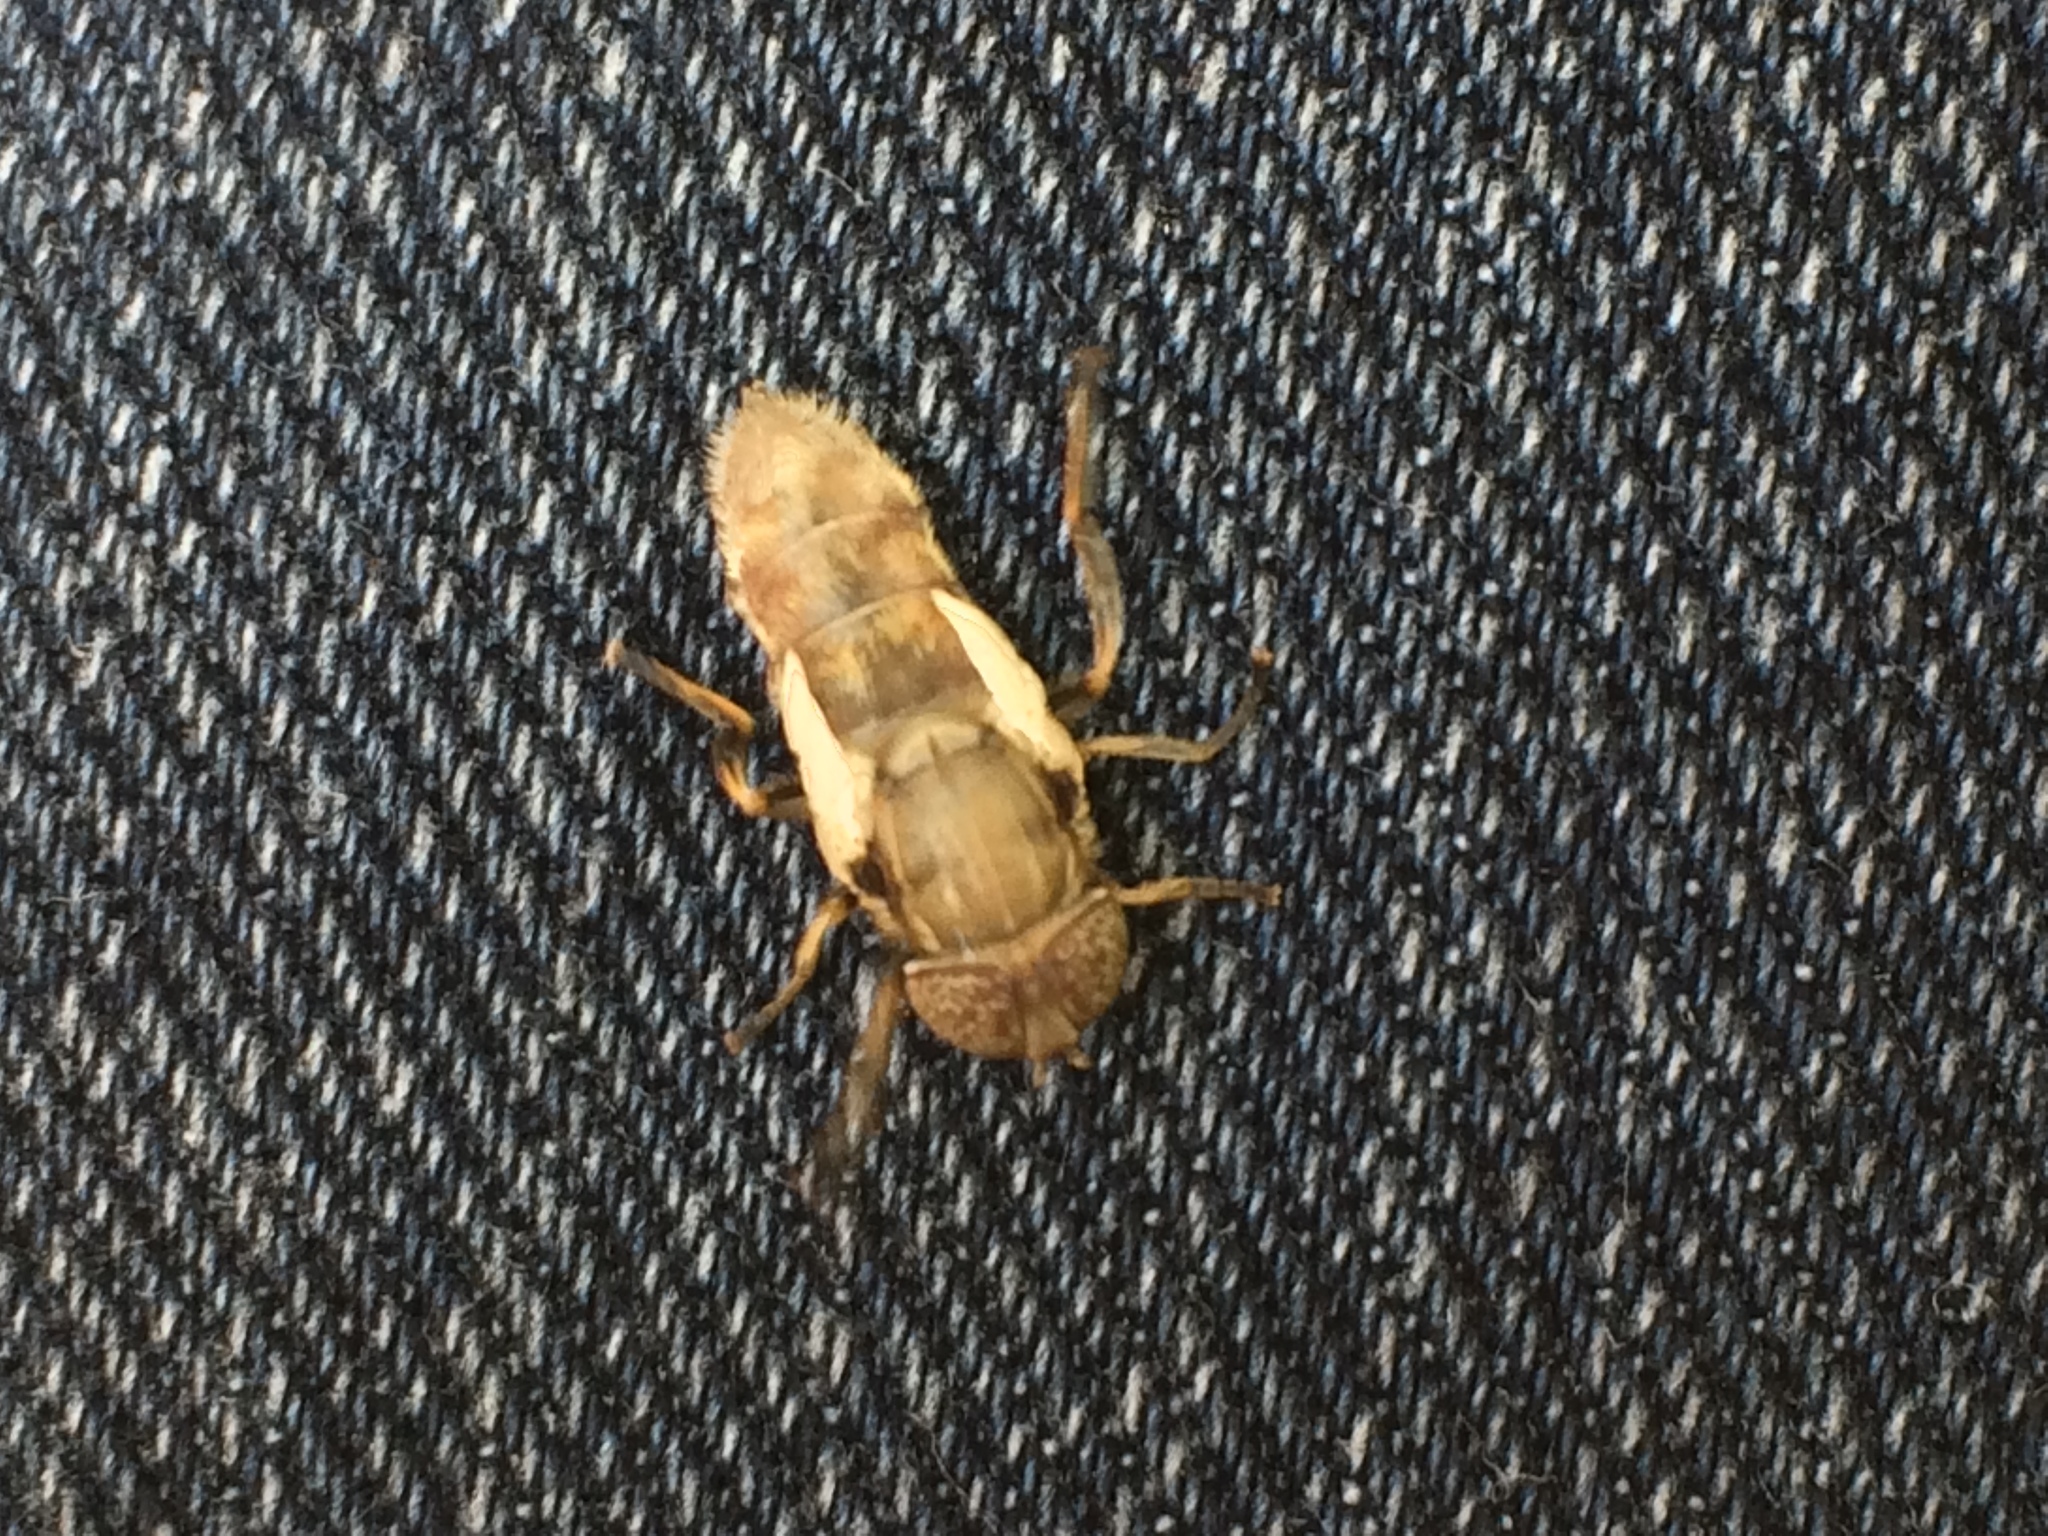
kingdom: Animalia
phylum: Arthropoda
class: Insecta
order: Diptera
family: Syrphidae
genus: Eristalinus
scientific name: Eristalinus aeneus
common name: Syrphid fly
